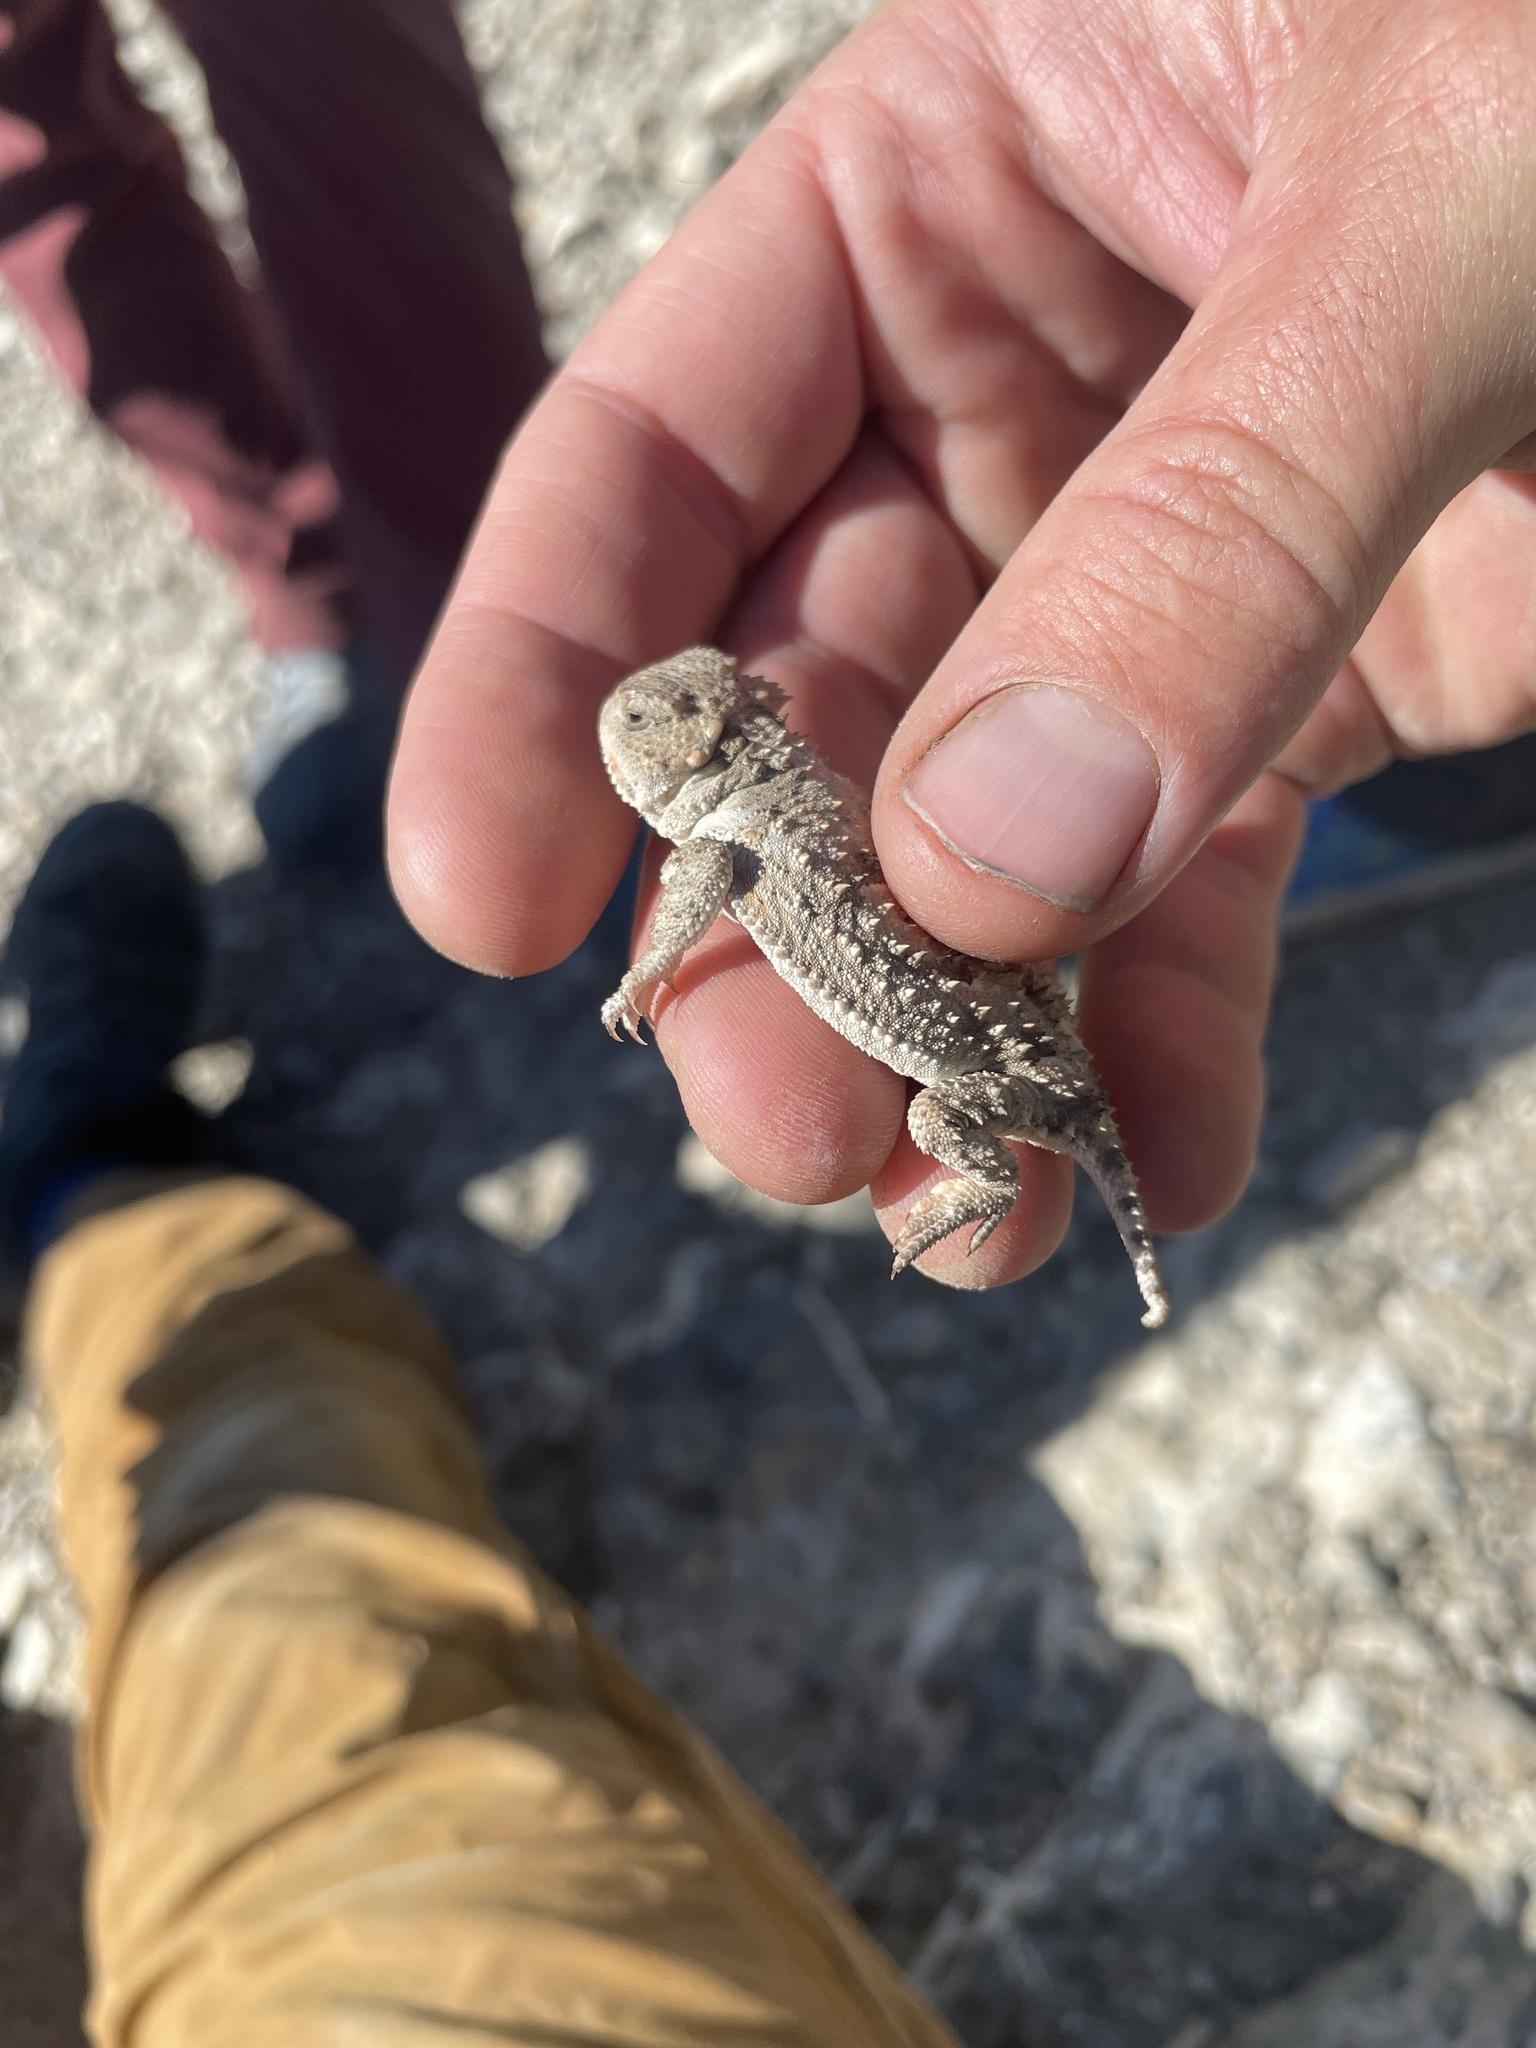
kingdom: Animalia
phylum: Chordata
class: Squamata
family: Phrynosomatidae
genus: Phrynosoma
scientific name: Phrynosoma hernandesi
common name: Greater short-horned lizard
